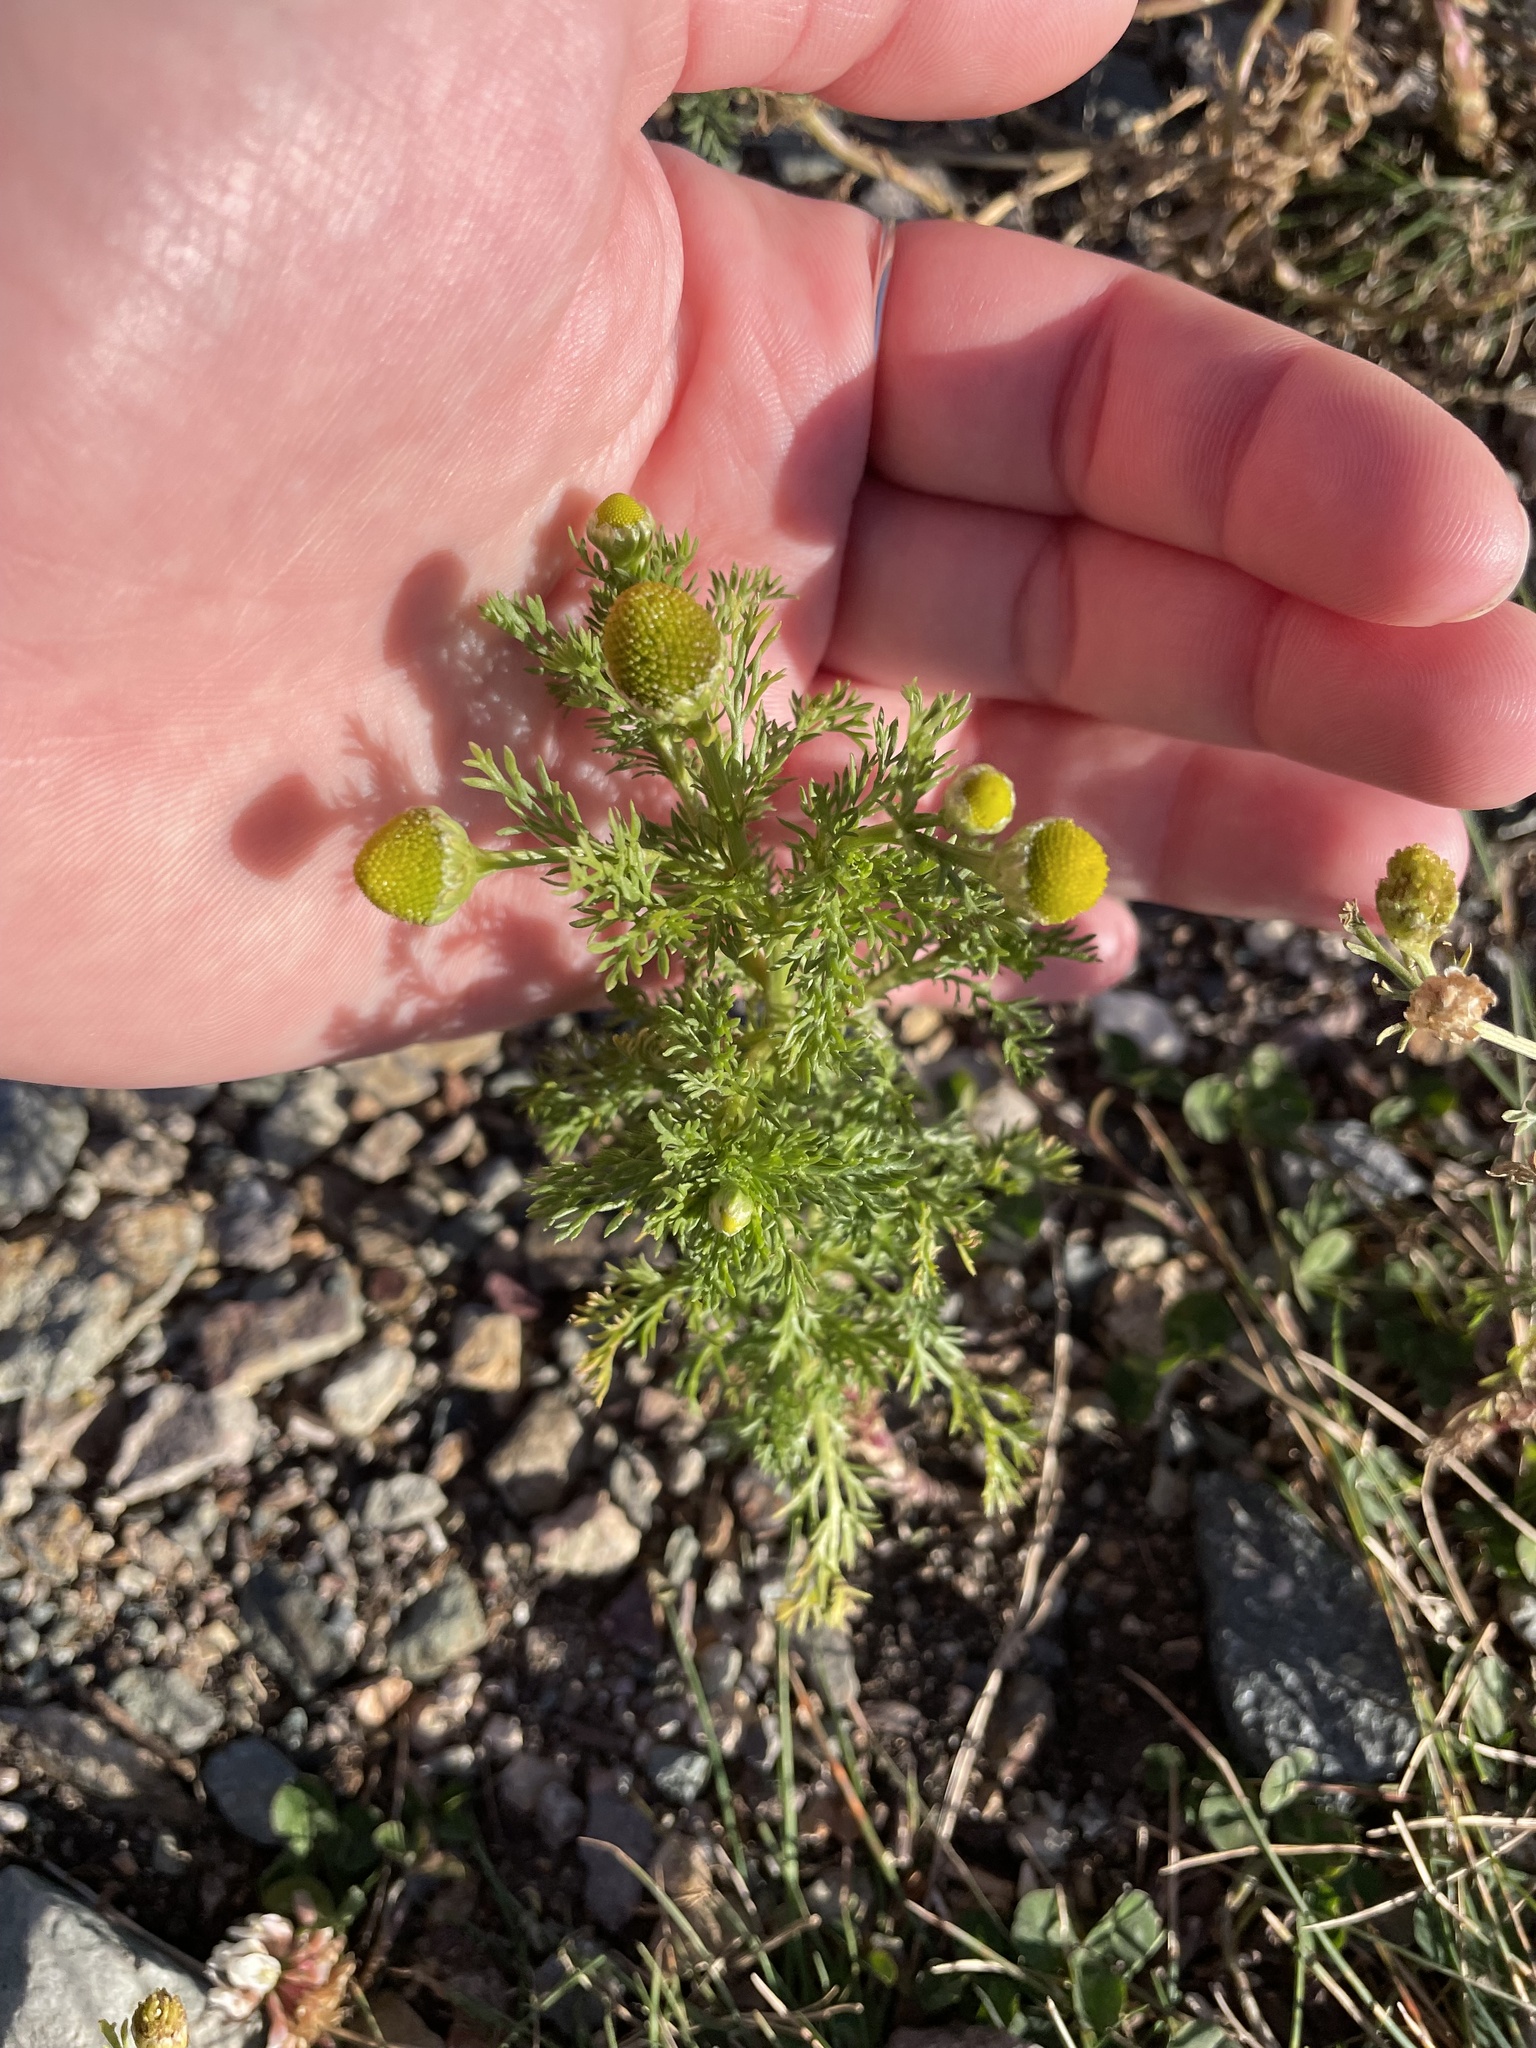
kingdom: Plantae
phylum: Tracheophyta
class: Magnoliopsida
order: Asterales
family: Asteraceae
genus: Matricaria
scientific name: Matricaria discoidea
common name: Disc mayweed
